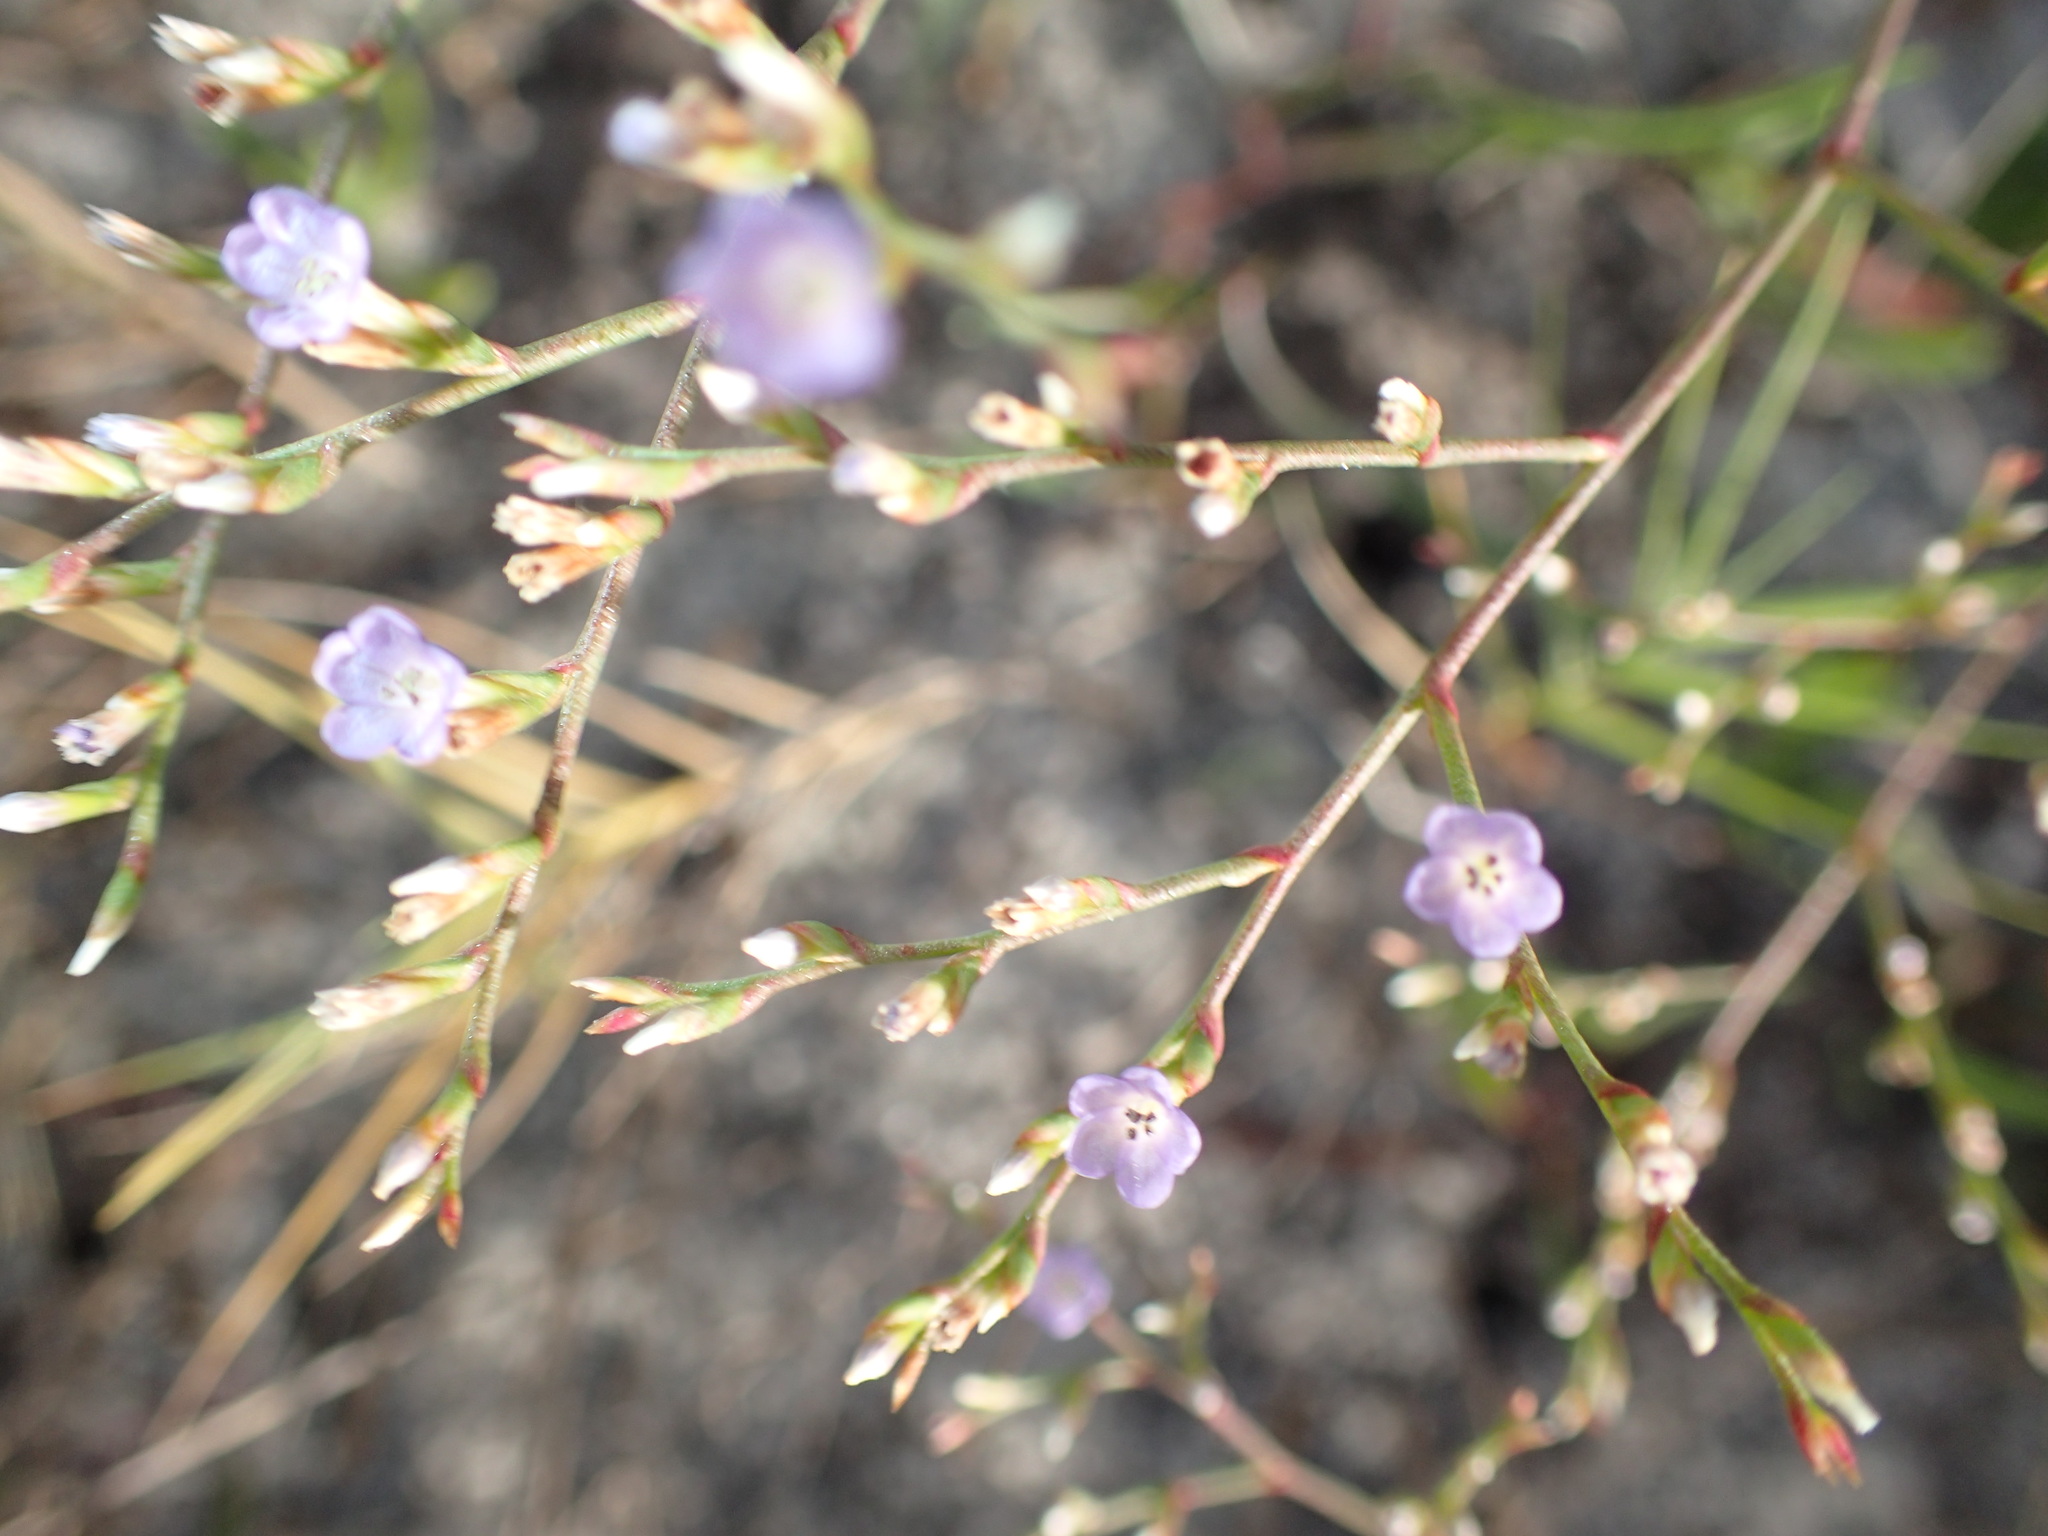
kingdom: Plantae
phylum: Tracheophyta
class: Magnoliopsida
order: Caryophyllales
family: Plumbaginaceae
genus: Limonium
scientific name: Limonium carolinianum
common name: Carolina sea lavender
